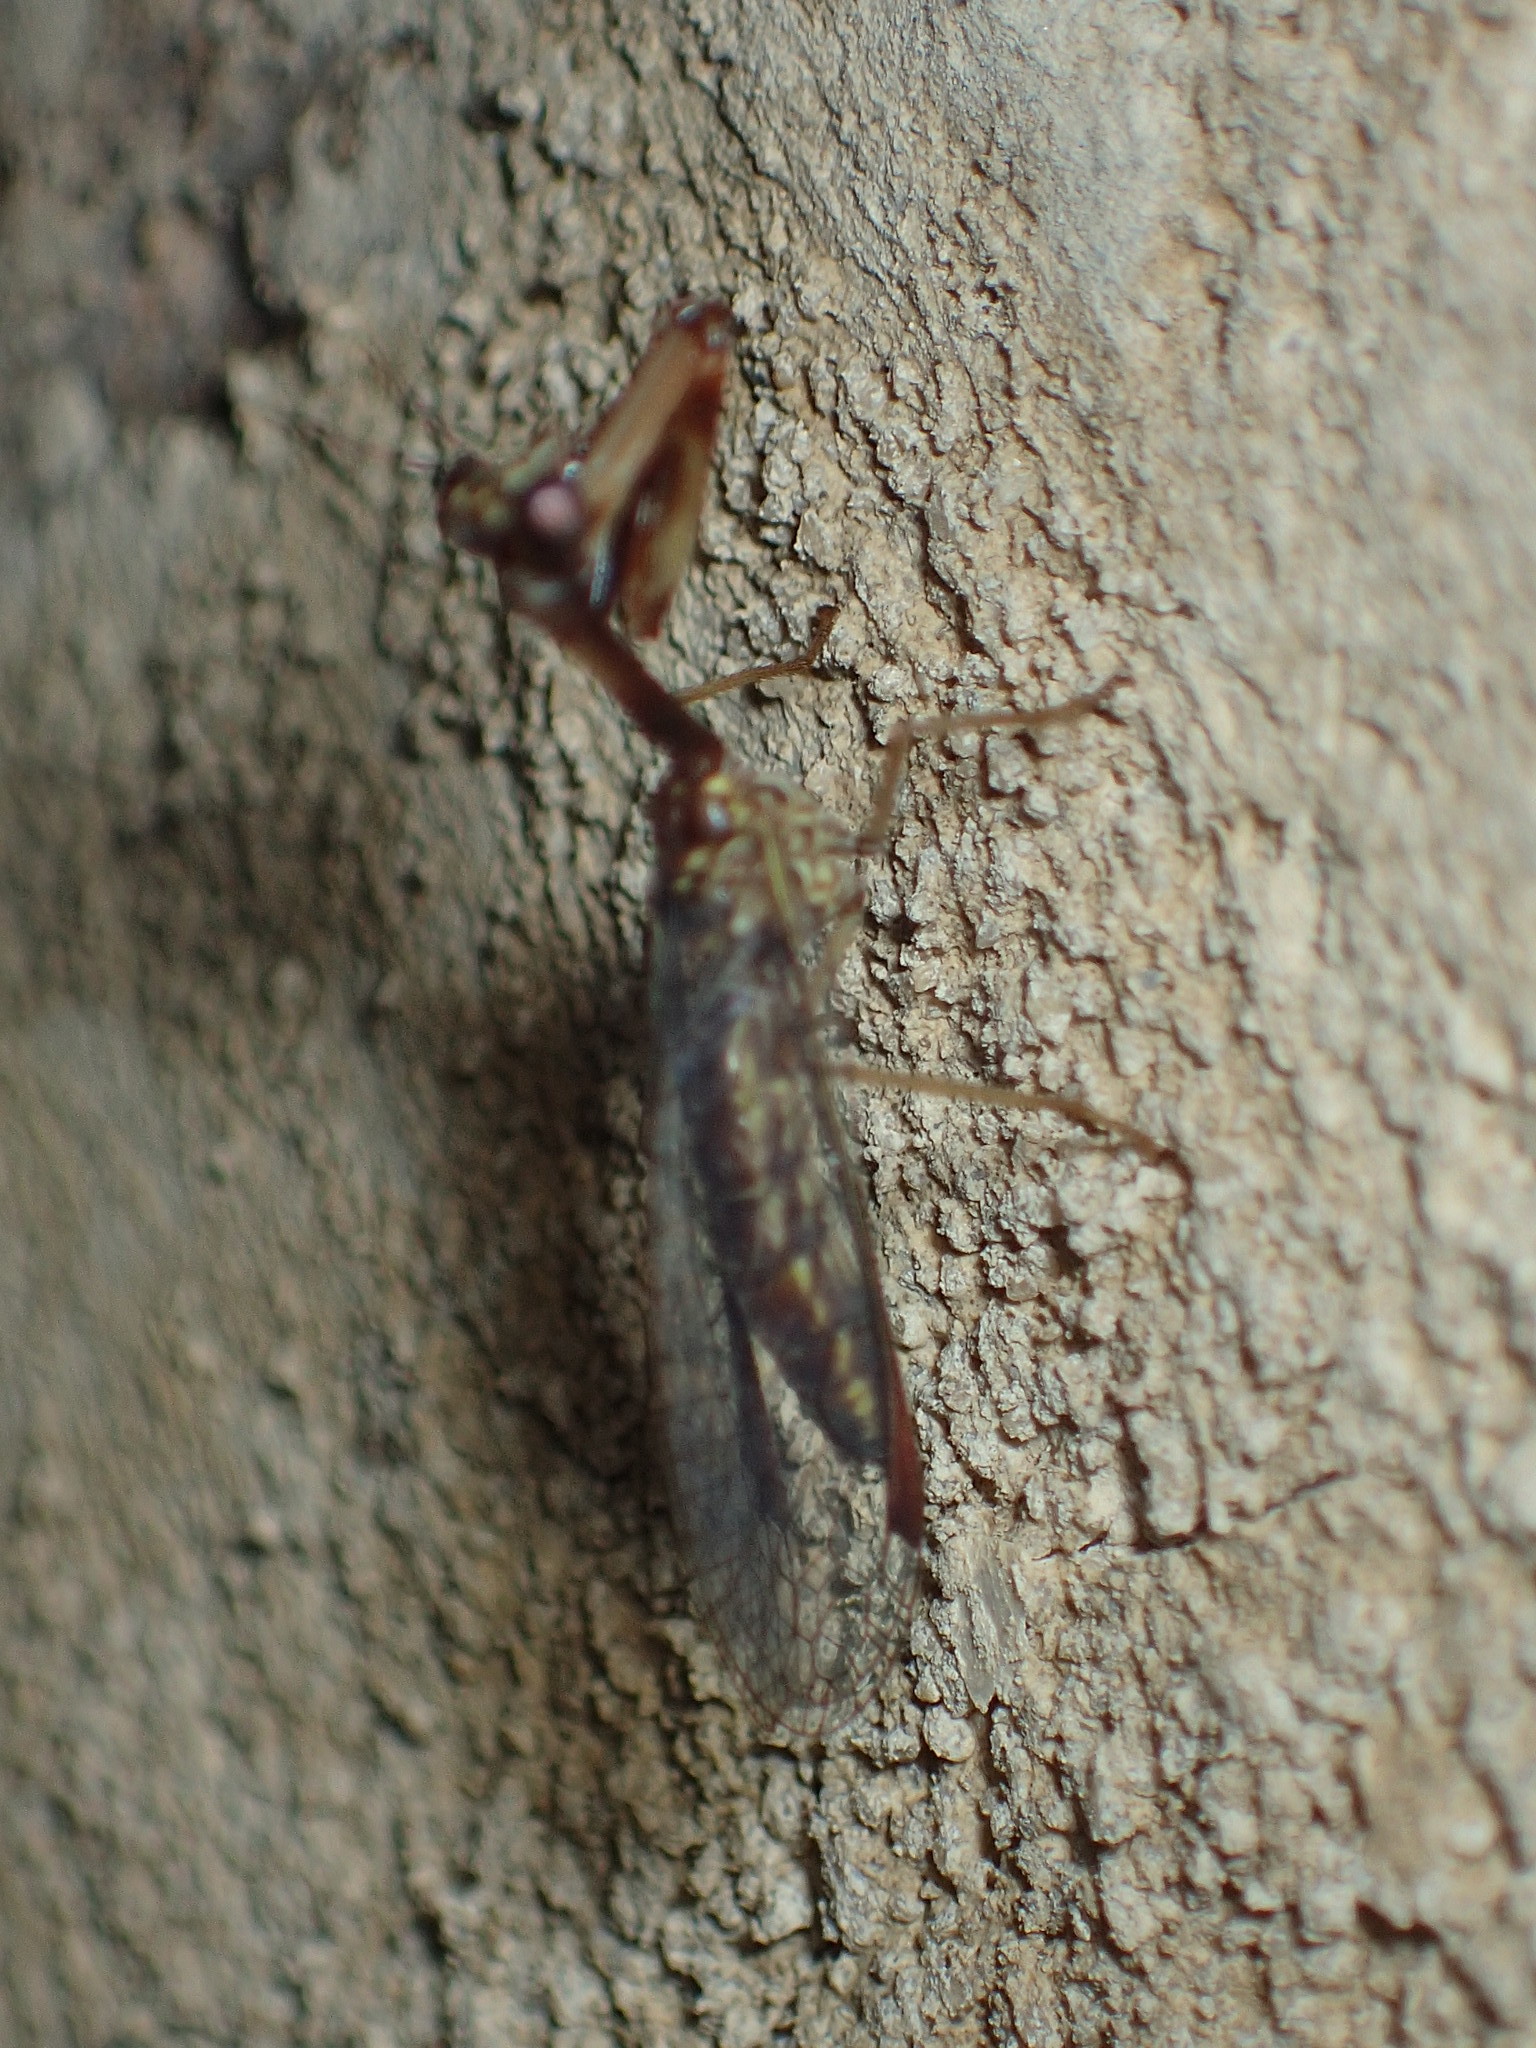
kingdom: Animalia
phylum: Arthropoda
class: Insecta
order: Neuroptera
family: Mantispidae
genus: Leptomantispa
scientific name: Leptomantispa pulchella
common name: Stevens's mantidfly
